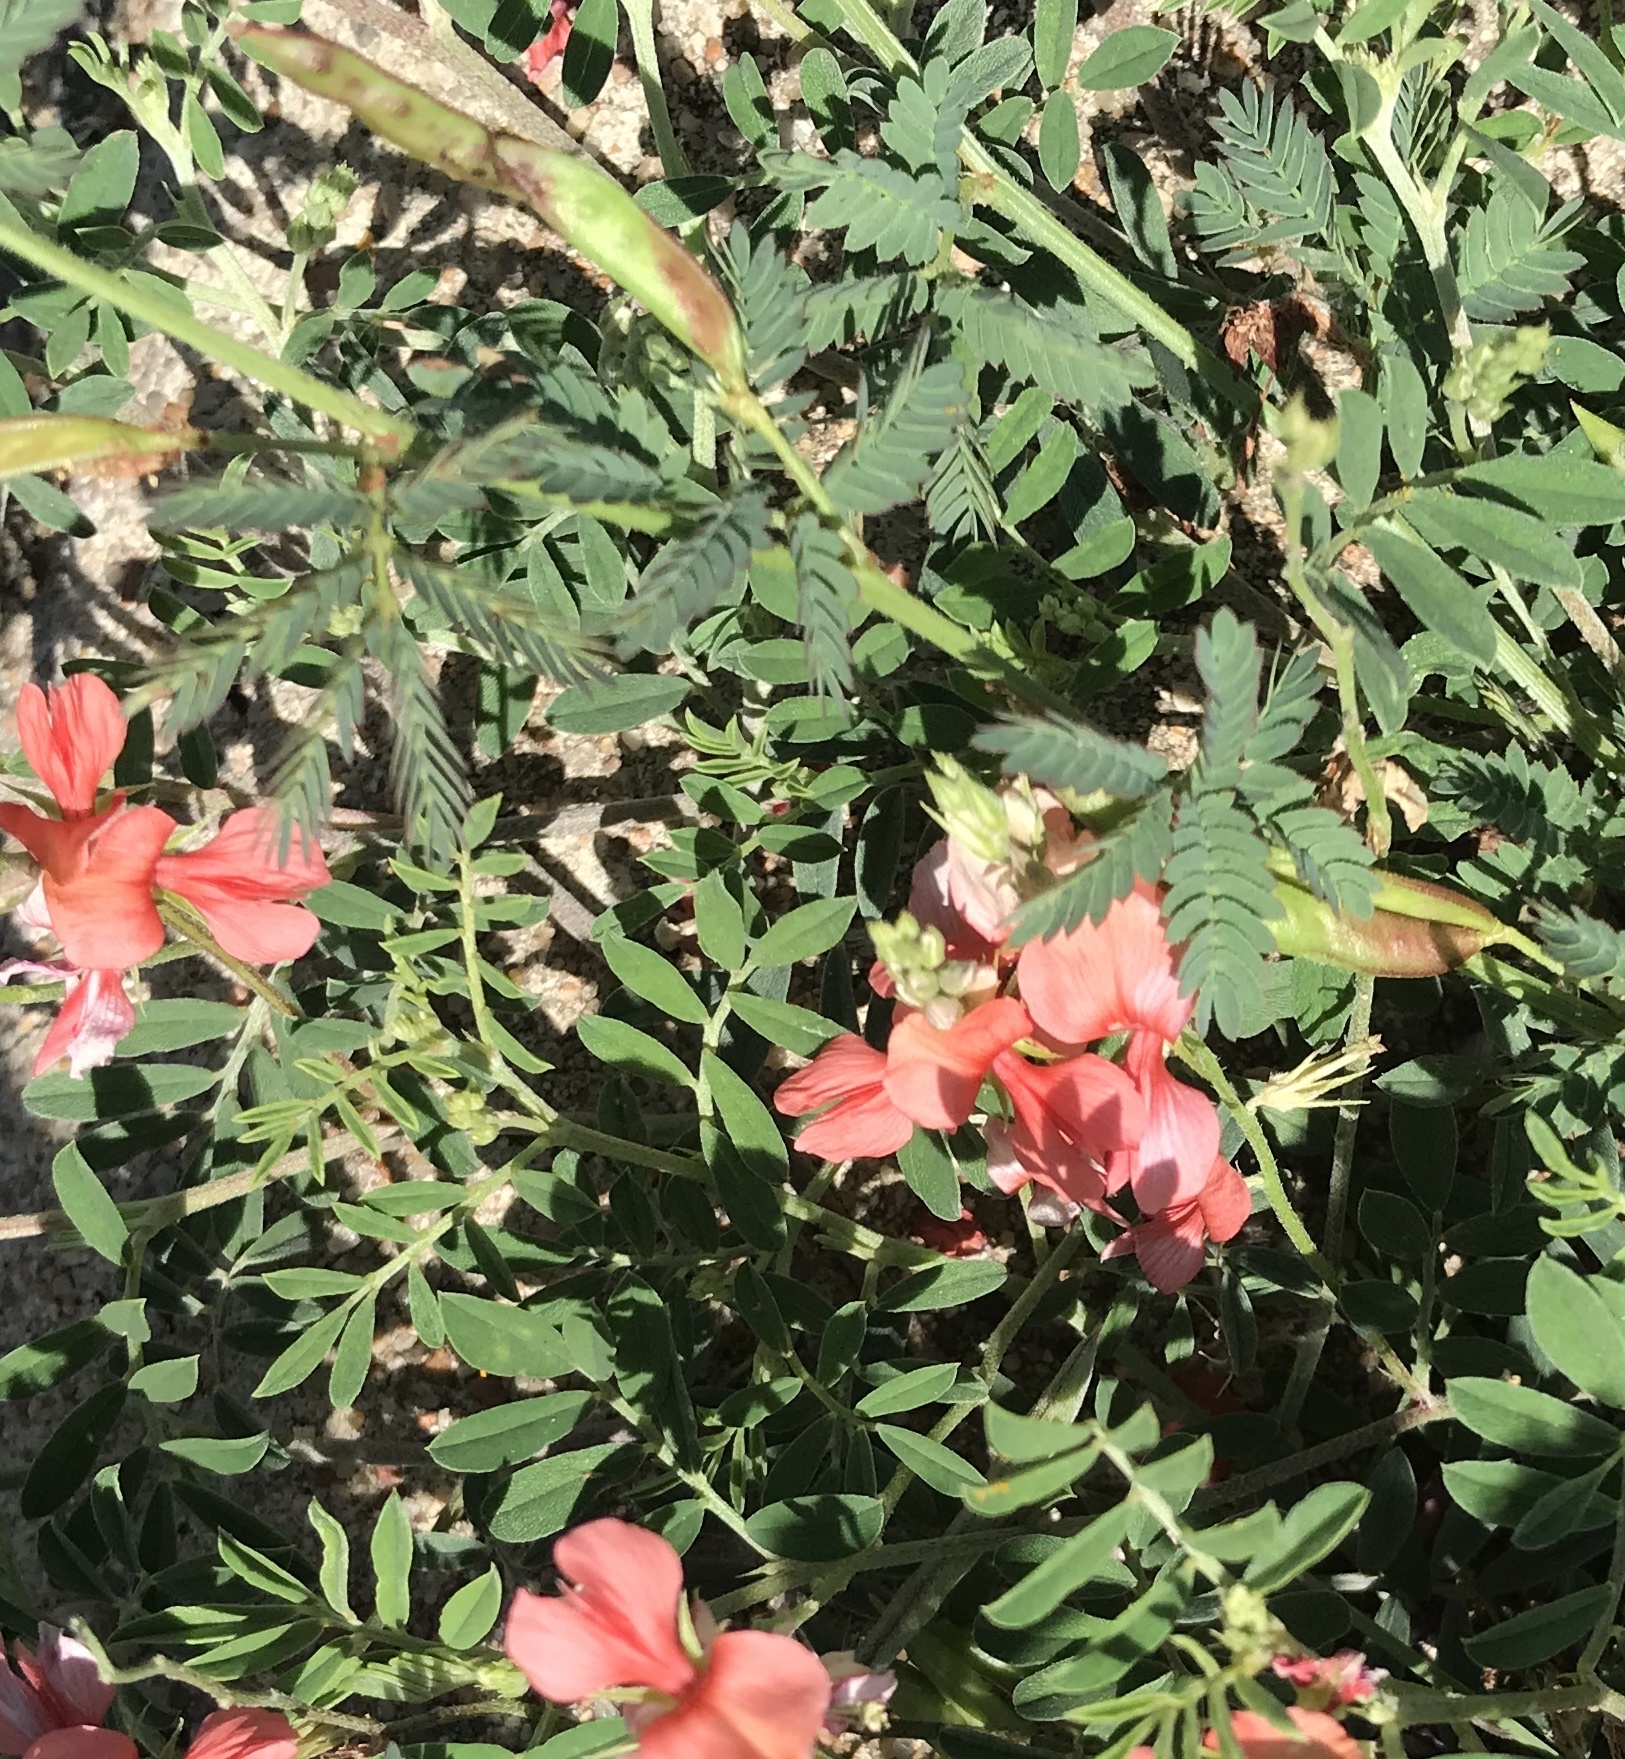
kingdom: Plantae
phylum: Tracheophyta
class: Magnoliopsida
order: Fabales
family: Fabaceae
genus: Indigofera
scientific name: Indigofera miniata
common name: Coast indigo
